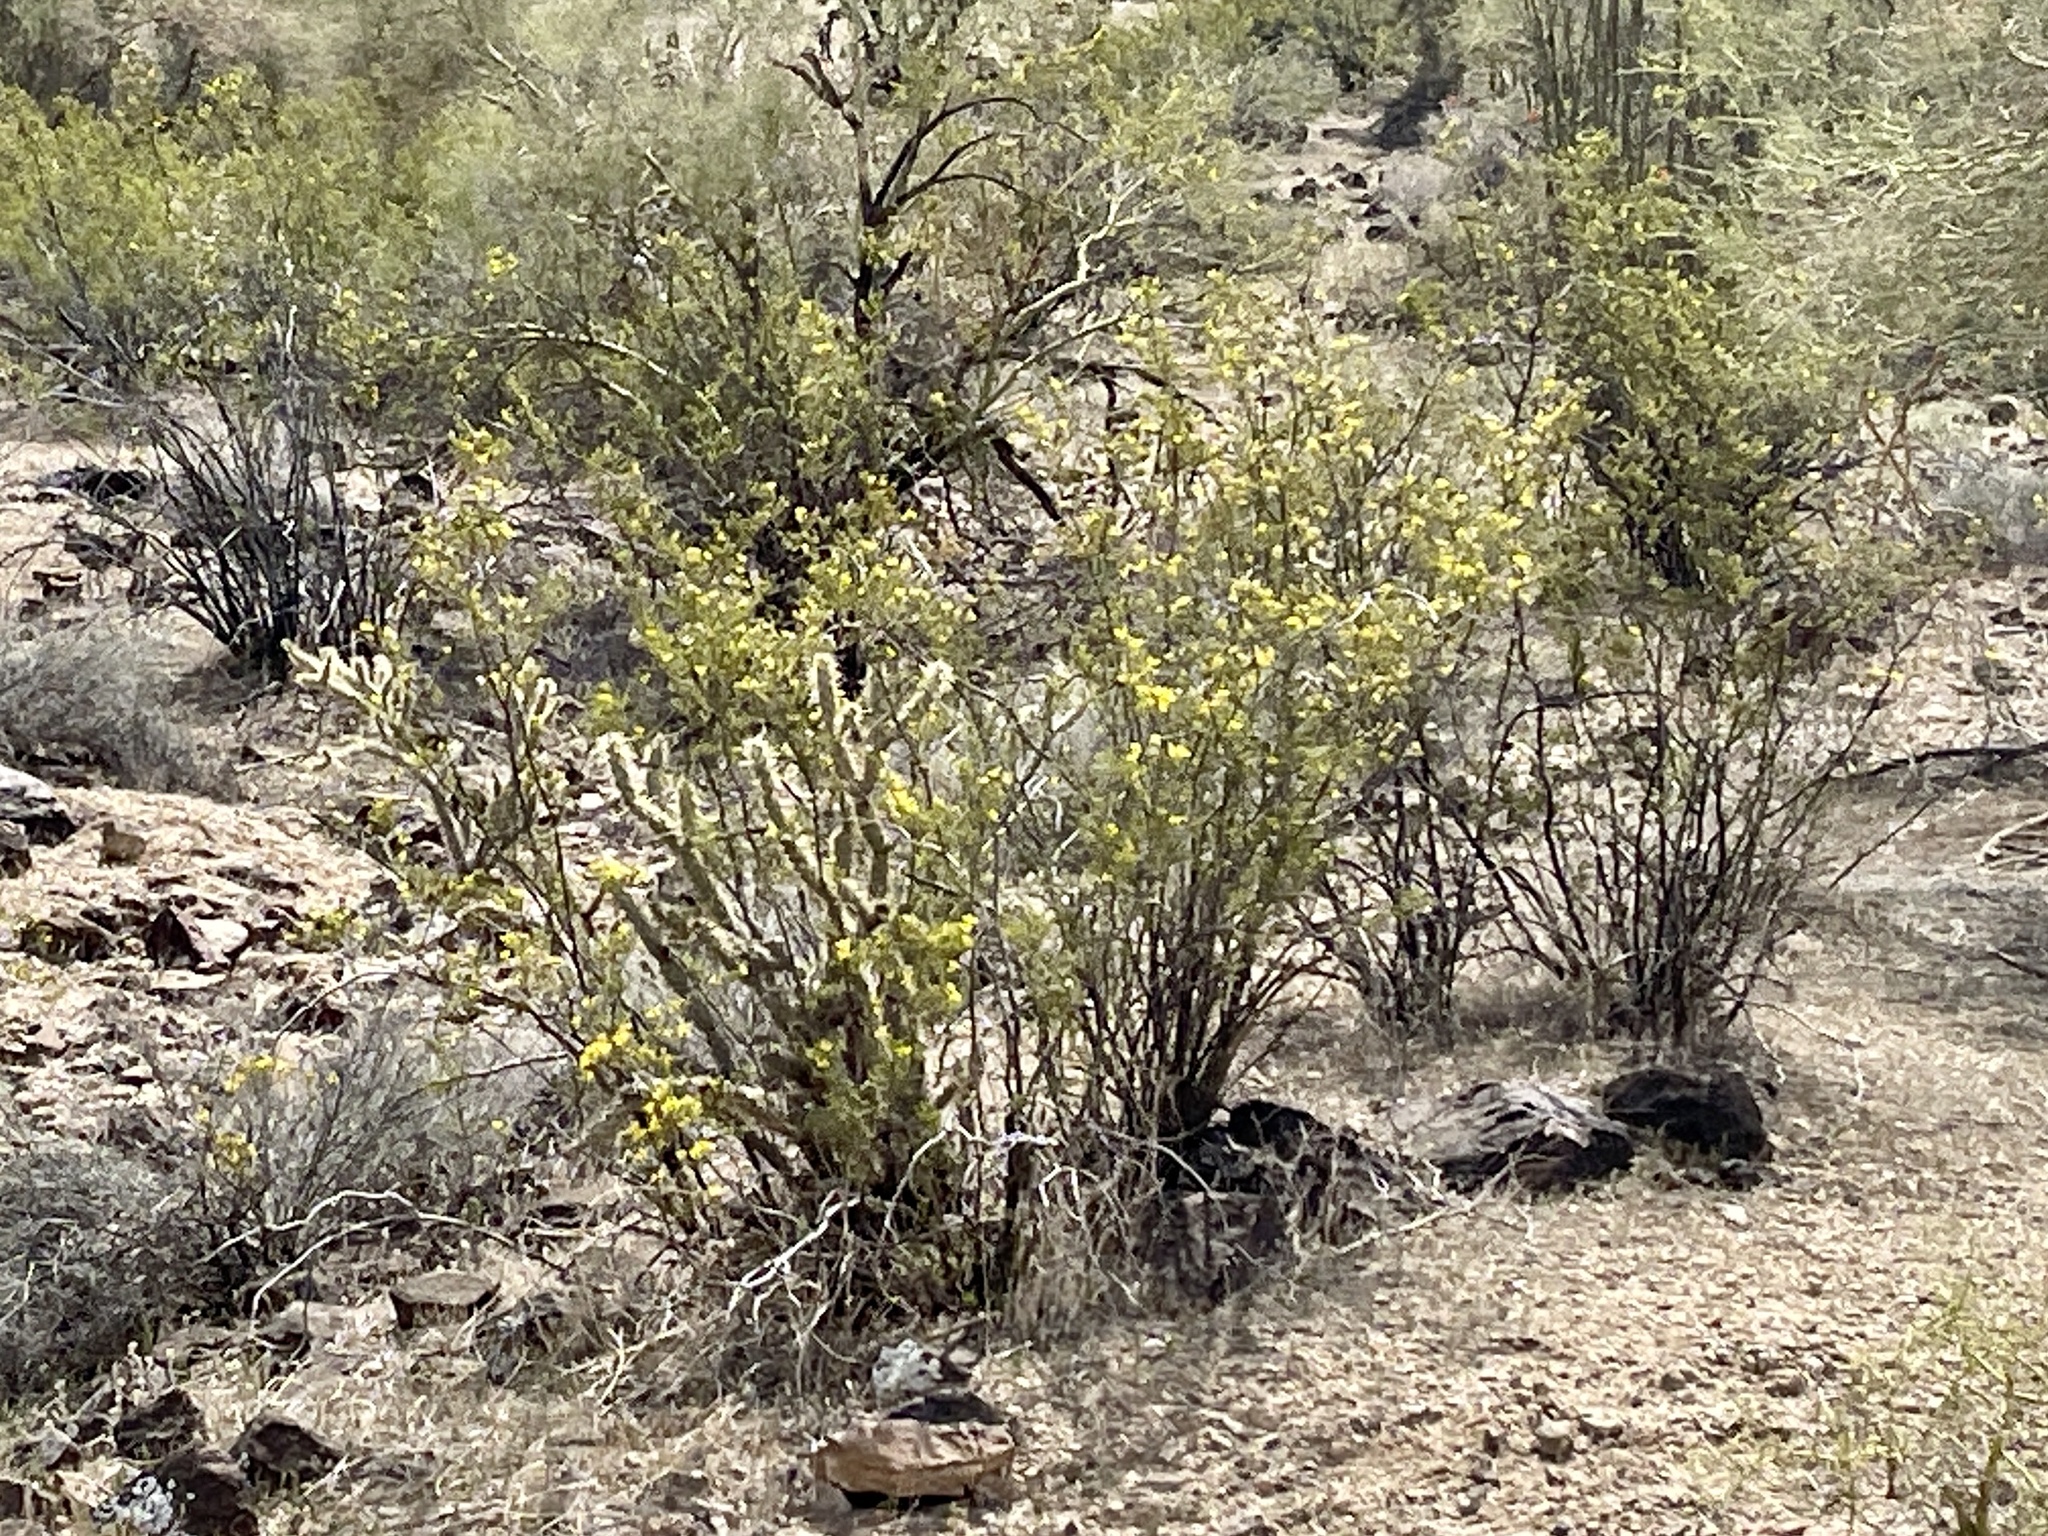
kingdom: Plantae
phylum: Tracheophyta
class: Magnoliopsida
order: Zygophyllales
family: Zygophyllaceae
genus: Larrea
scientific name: Larrea tridentata
